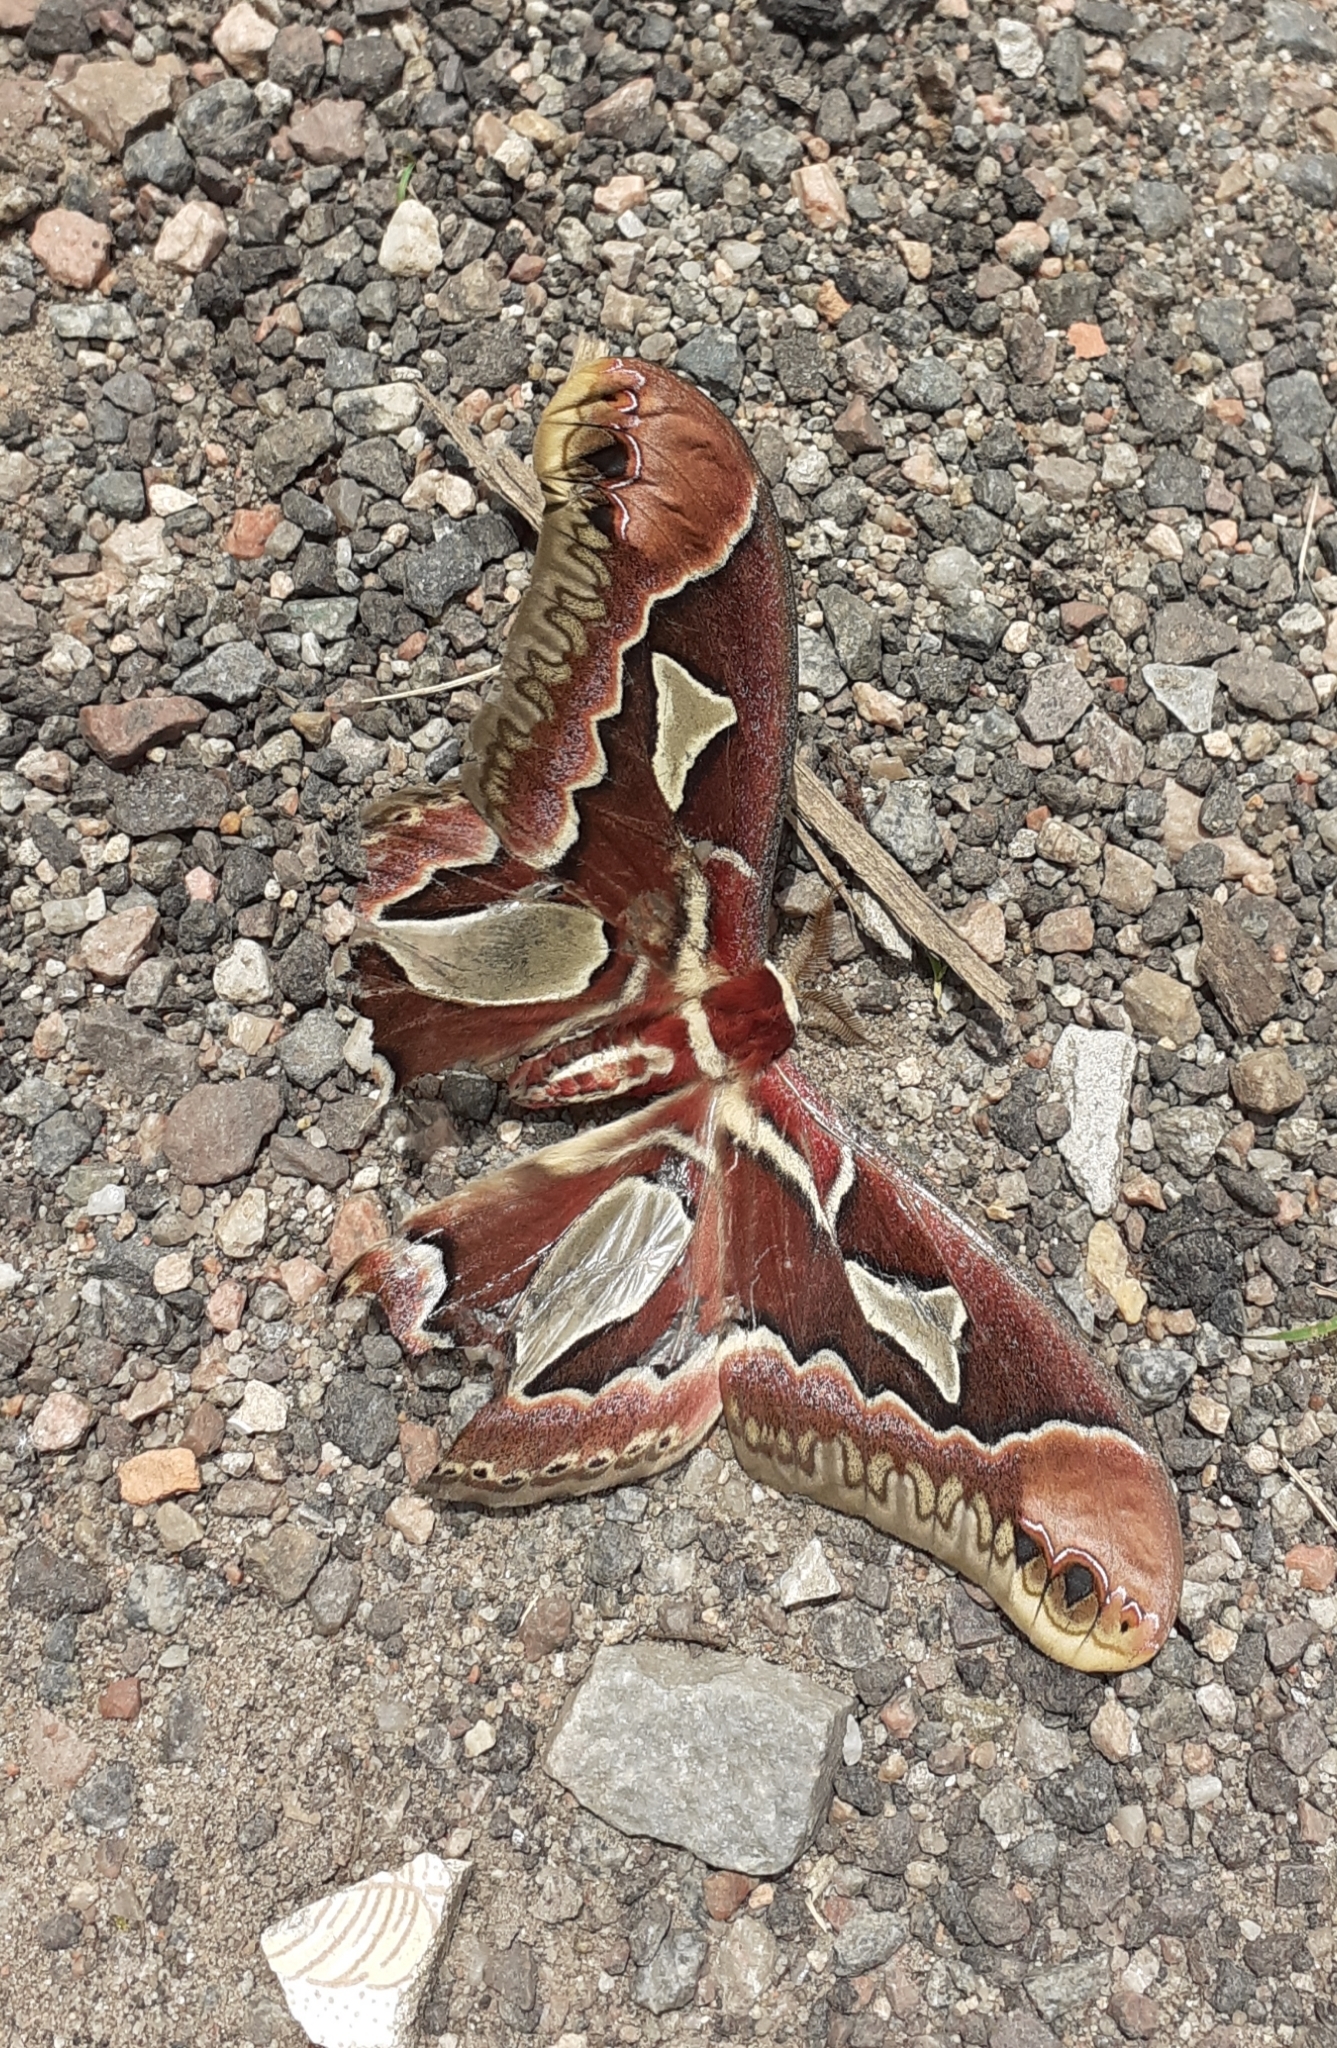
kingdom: Animalia
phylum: Arthropoda
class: Insecta
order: Lepidoptera
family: Saturniidae
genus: Rothschildia
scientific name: Rothschildia jacobaeae
